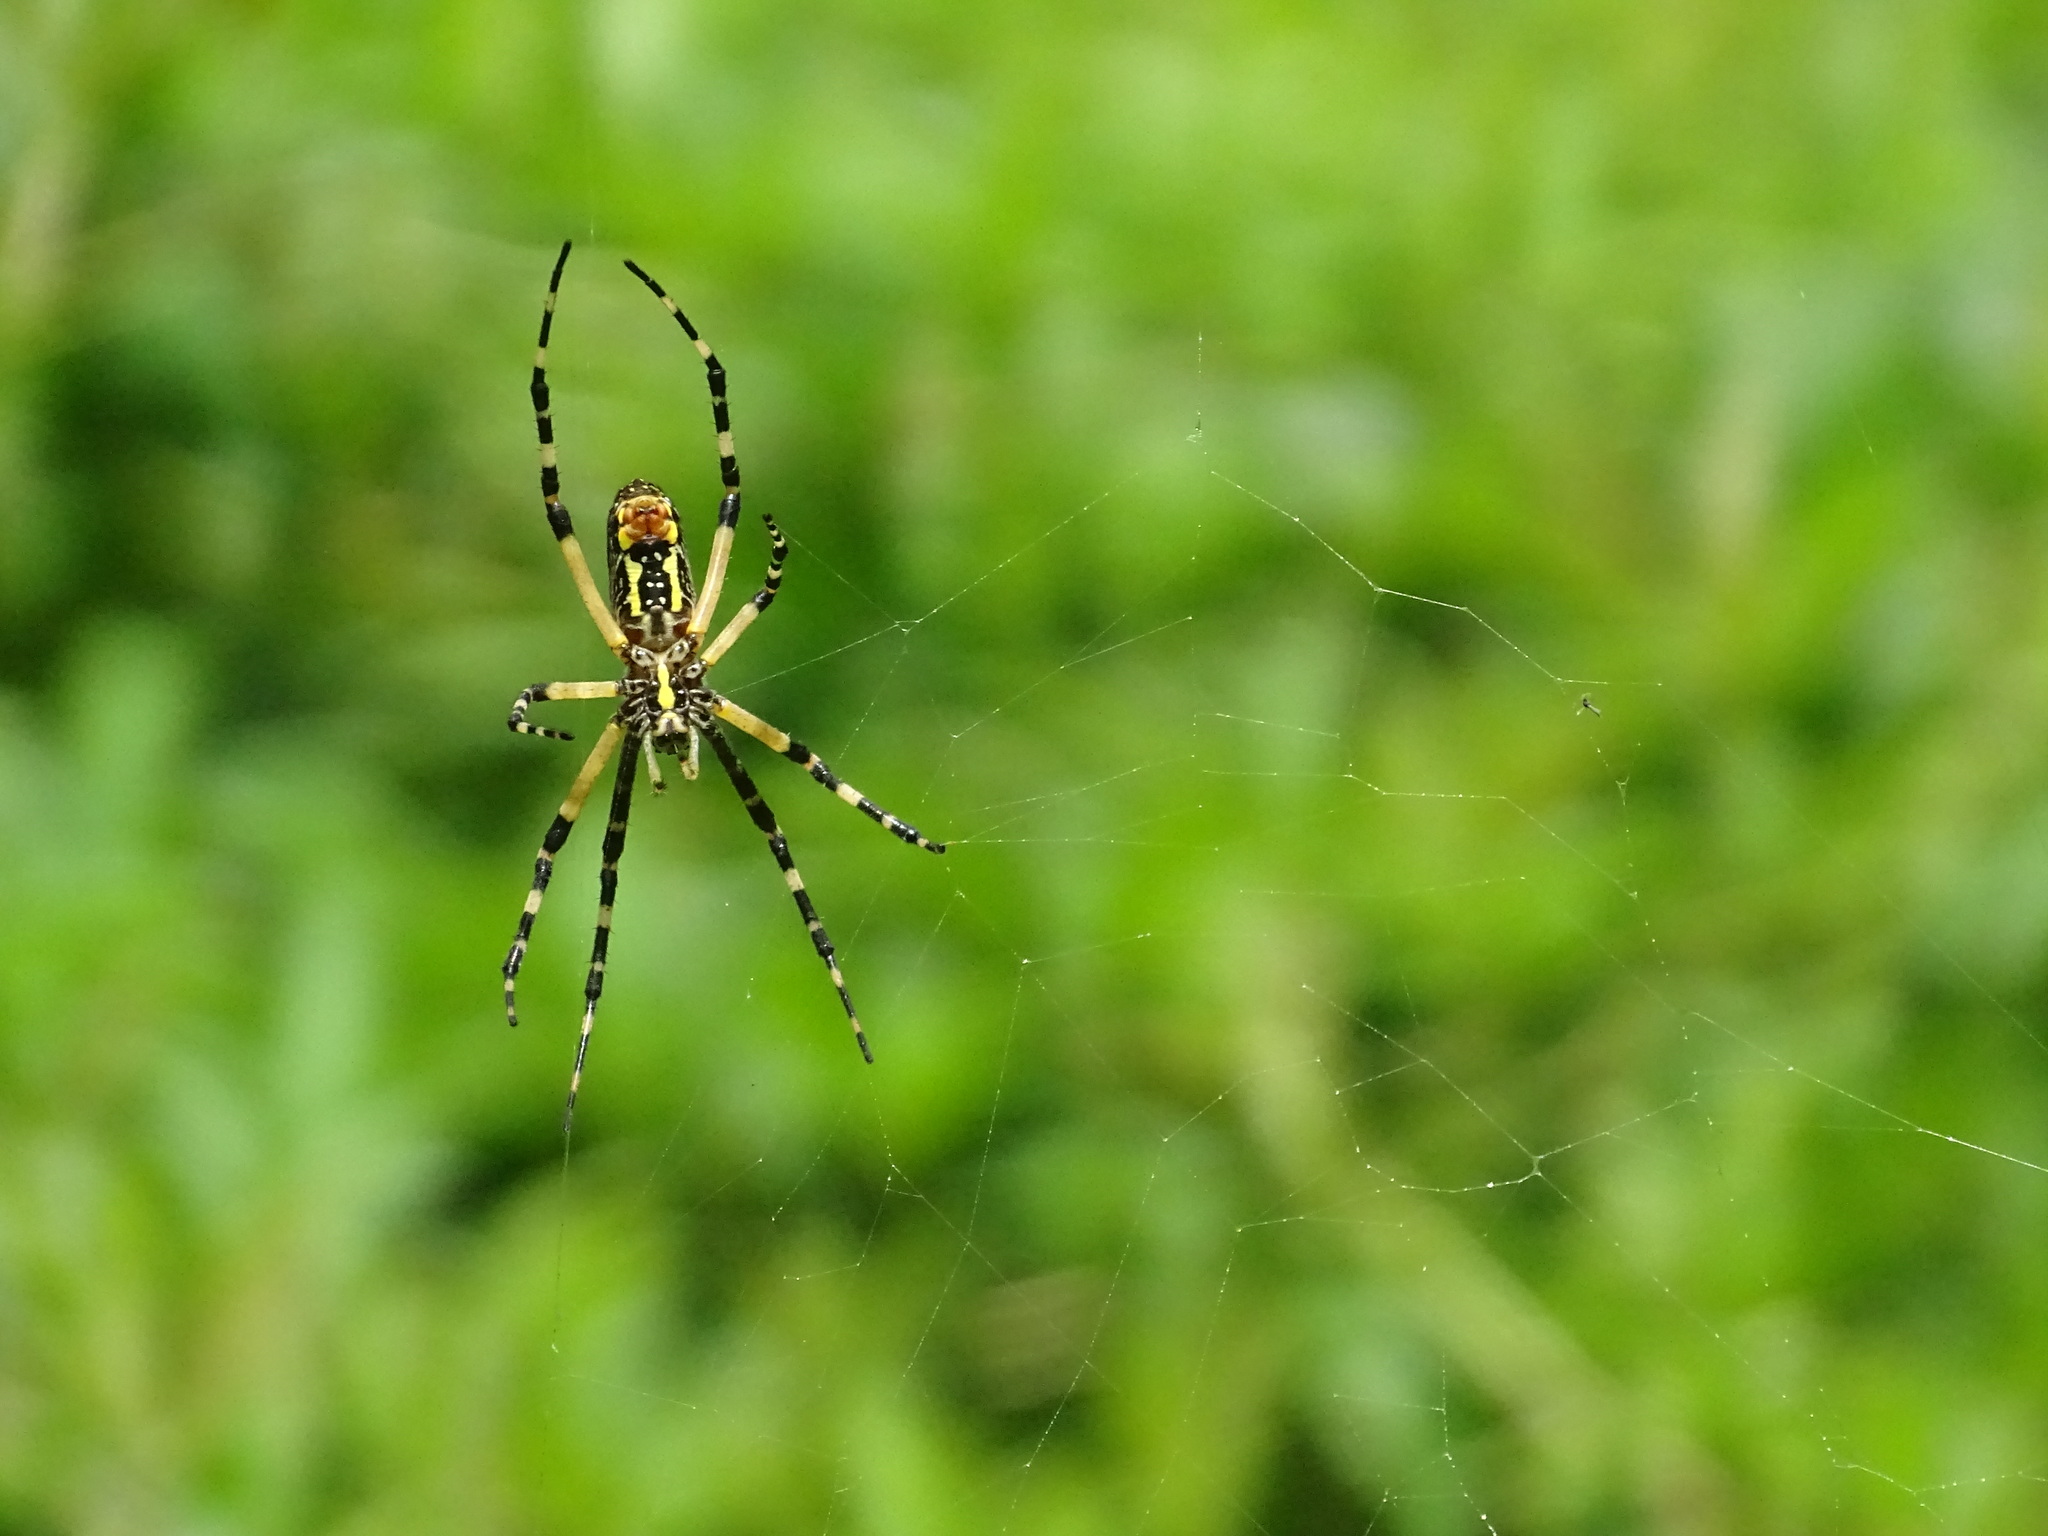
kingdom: Animalia
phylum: Arthropoda
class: Arachnida
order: Araneae
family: Araneidae
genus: Argiope
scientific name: Argiope aurantia
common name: Orb weavers
